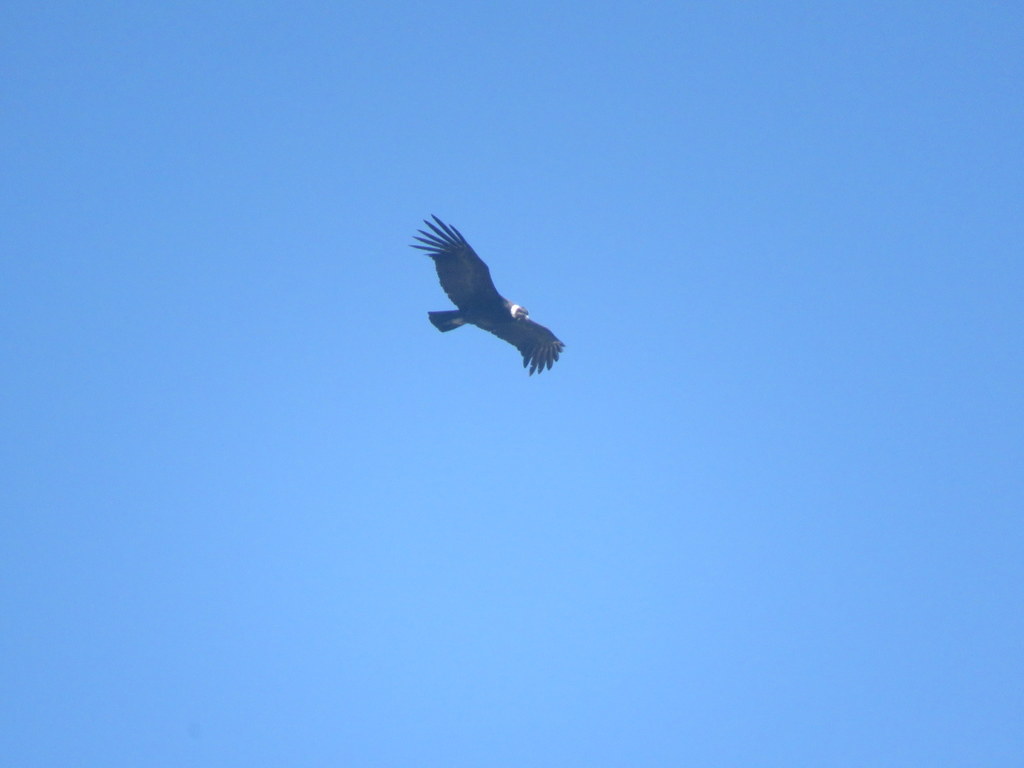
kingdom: Animalia
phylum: Chordata
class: Aves
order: Accipitriformes
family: Cathartidae
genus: Vultur
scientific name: Vultur gryphus
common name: Andean condor
